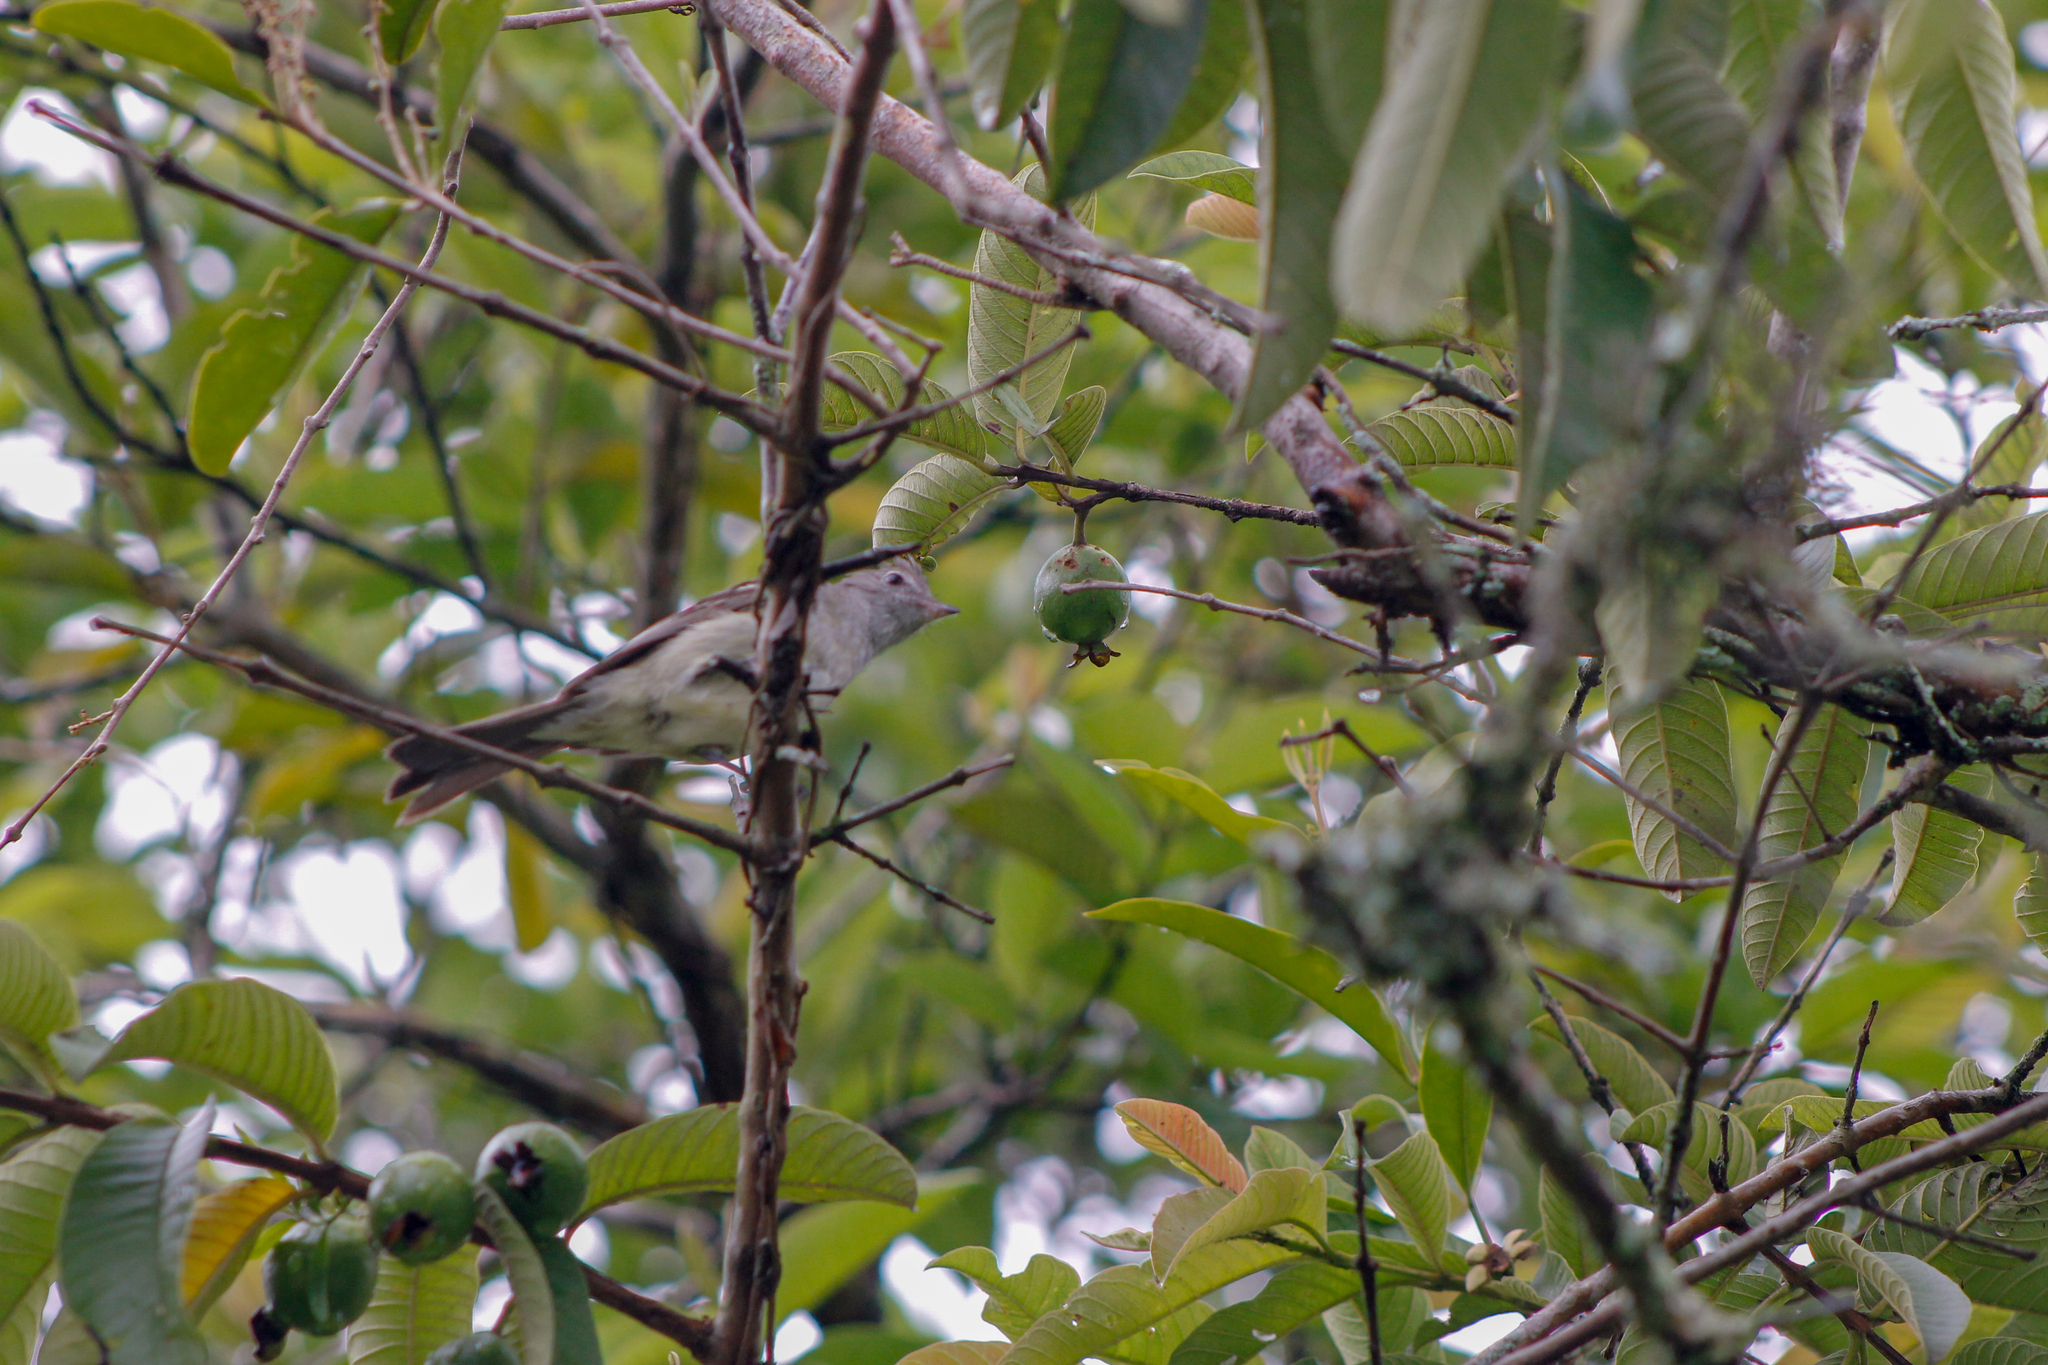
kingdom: Animalia
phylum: Chordata
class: Aves
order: Passeriformes
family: Tyrannidae
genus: Elaenia
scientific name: Elaenia flavogaster
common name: Yellow-bellied elaenia
